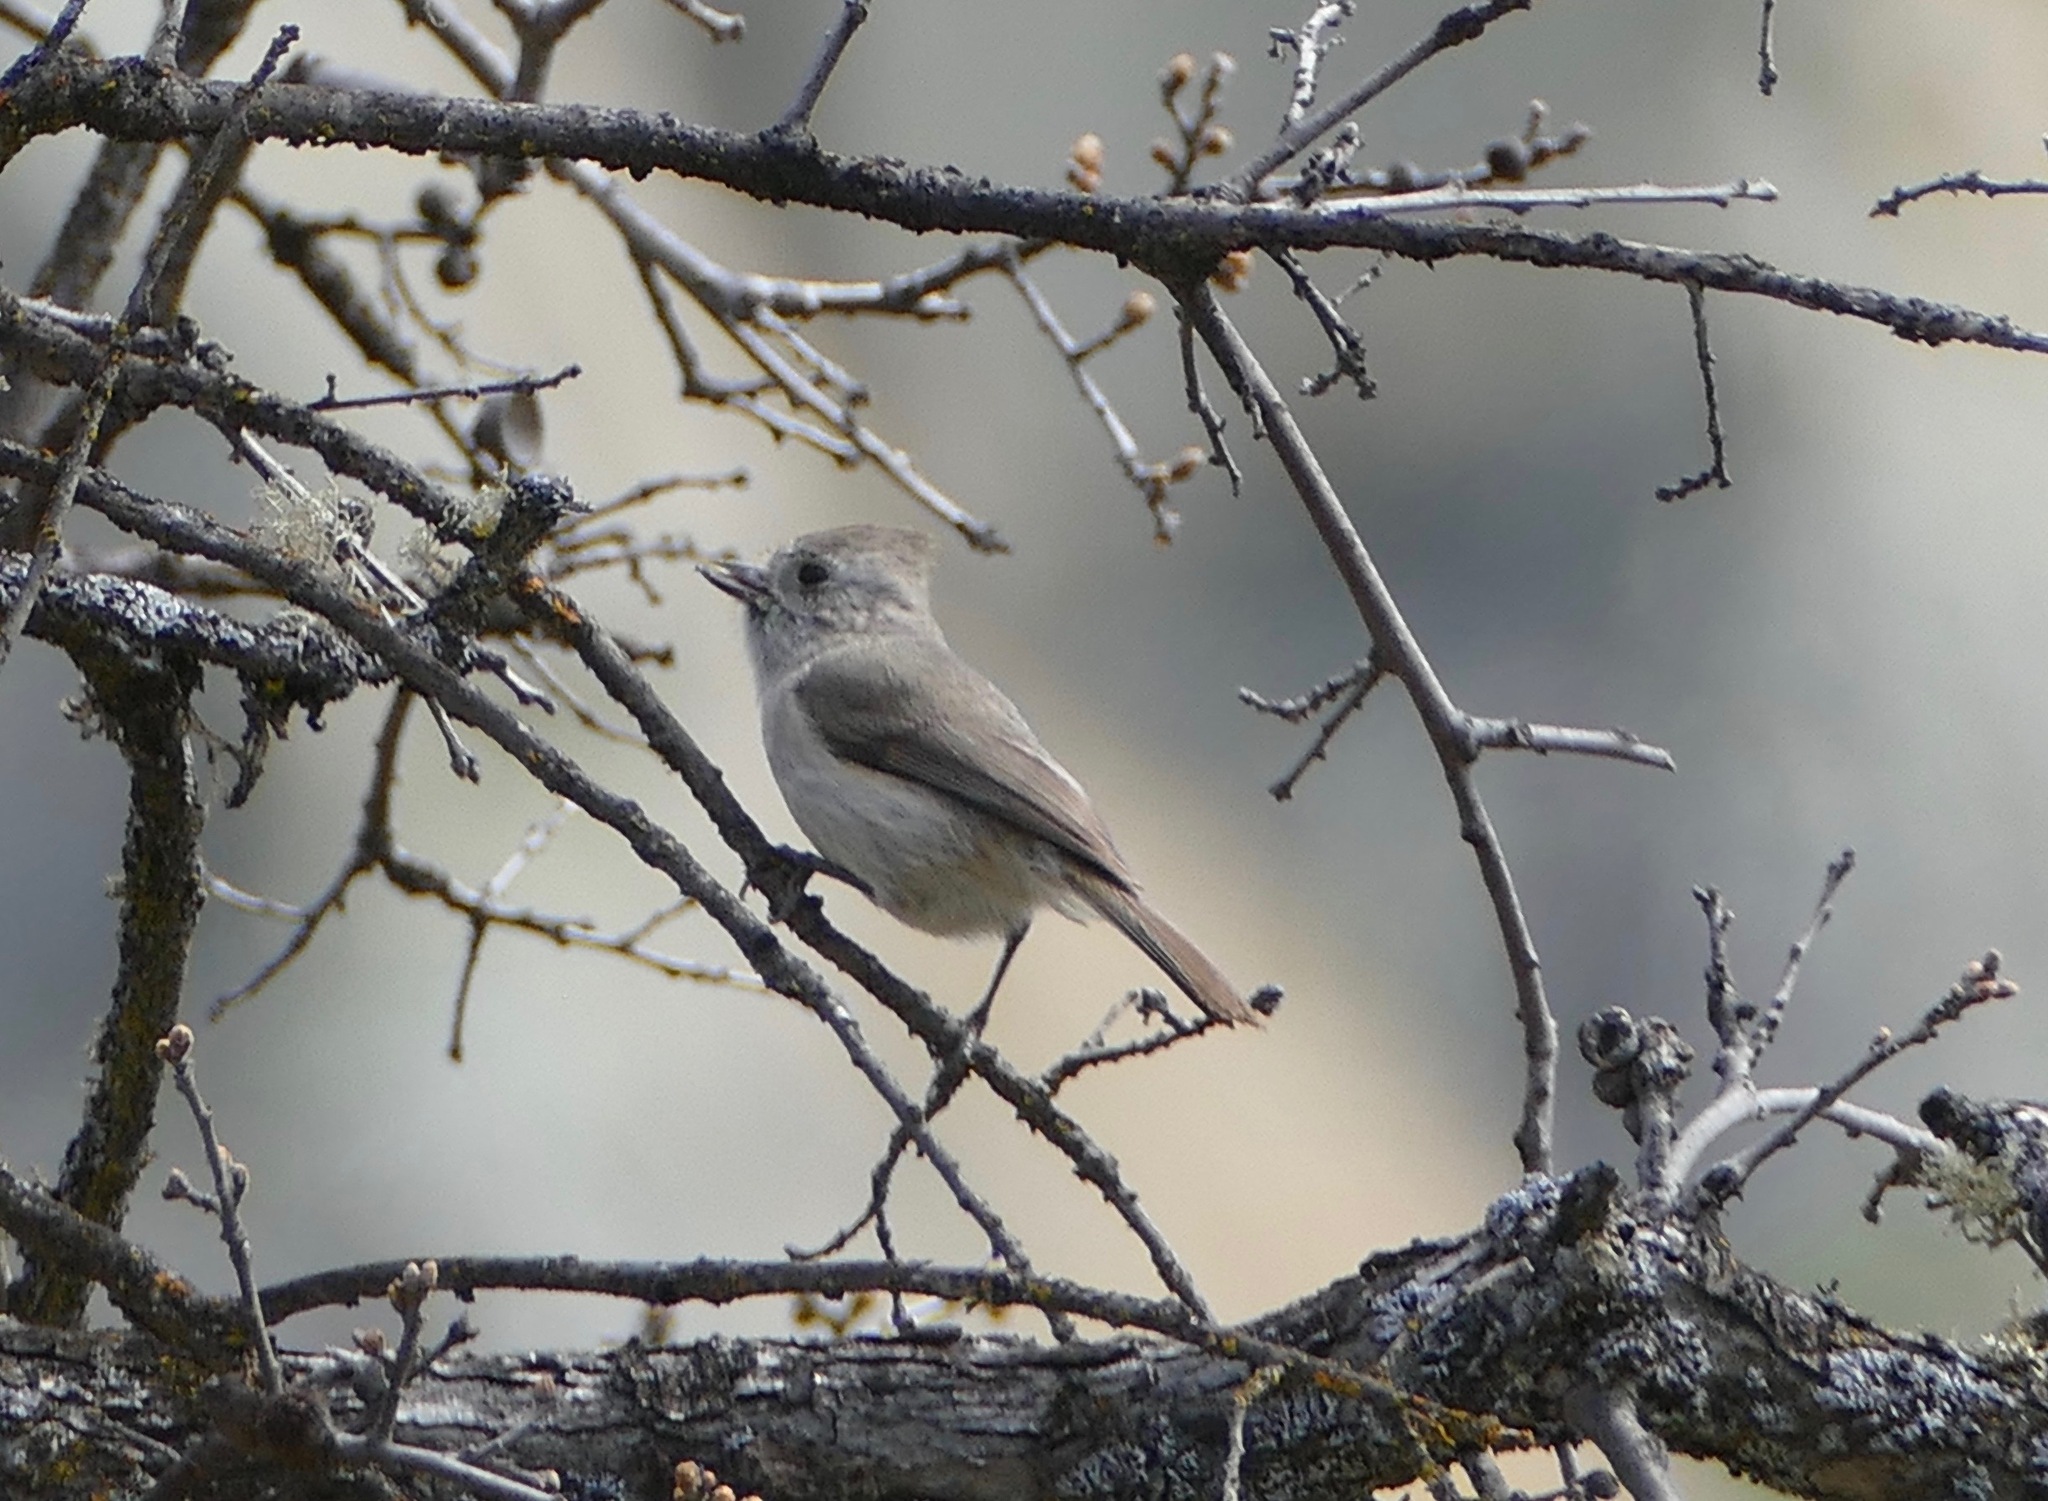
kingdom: Animalia
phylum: Chordata
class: Aves
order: Passeriformes
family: Paridae
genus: Baeolophus
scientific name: Baeolophus inornatus
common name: Oak titmouse
